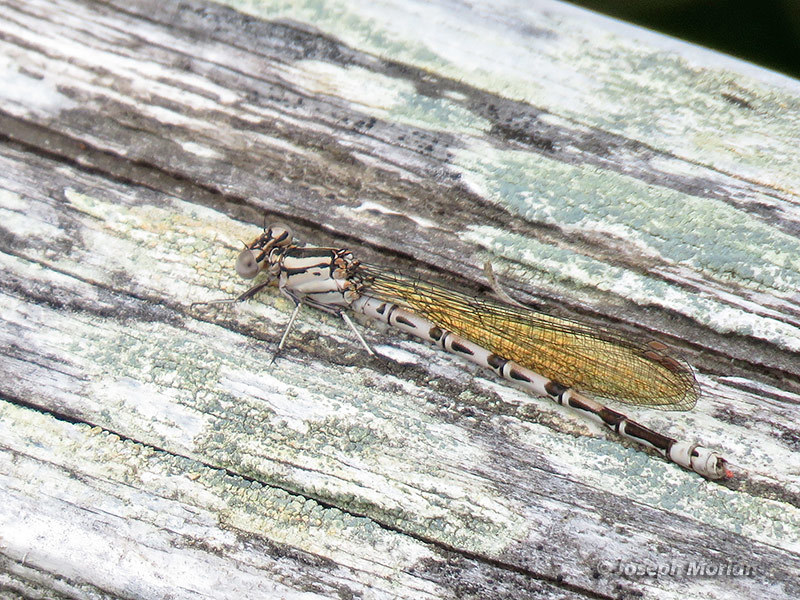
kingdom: Animalia
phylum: Arthropoda
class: Insecta
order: Odonata
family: Coenagrionidae
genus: Argia
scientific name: Argia vivida
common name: Vivid dancer
